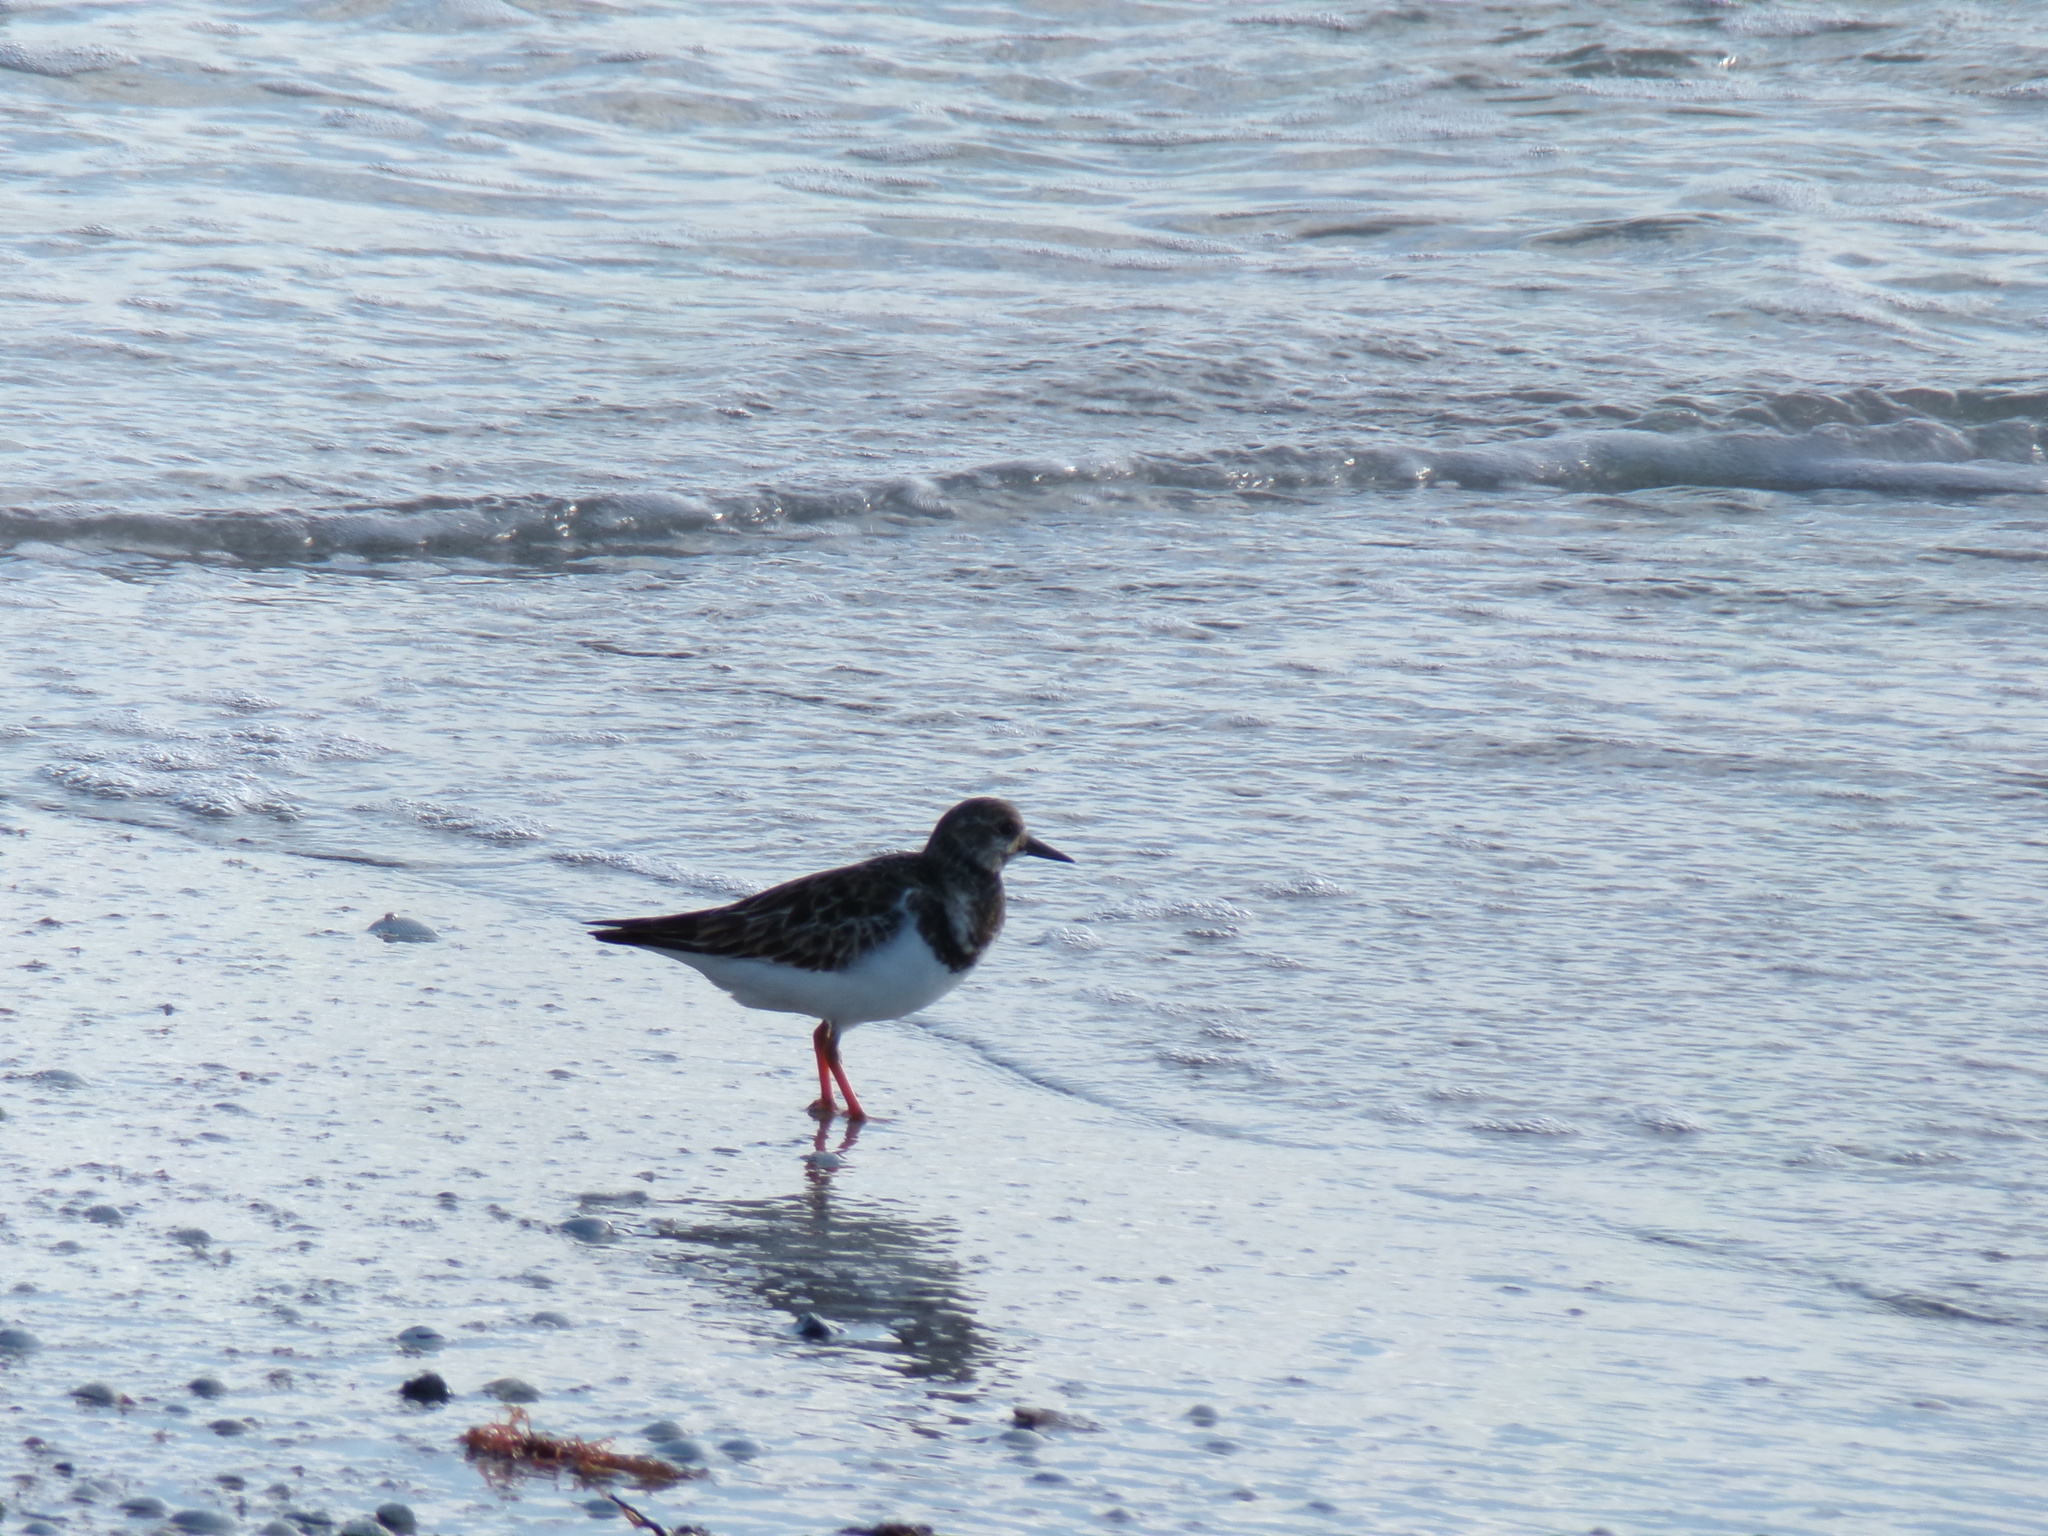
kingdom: Animalia
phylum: Chordata
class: Aves
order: Charadriiformes
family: Scolopacidae
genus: Arenaria
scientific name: Arenaria interpres
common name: Ruddy turnstone
